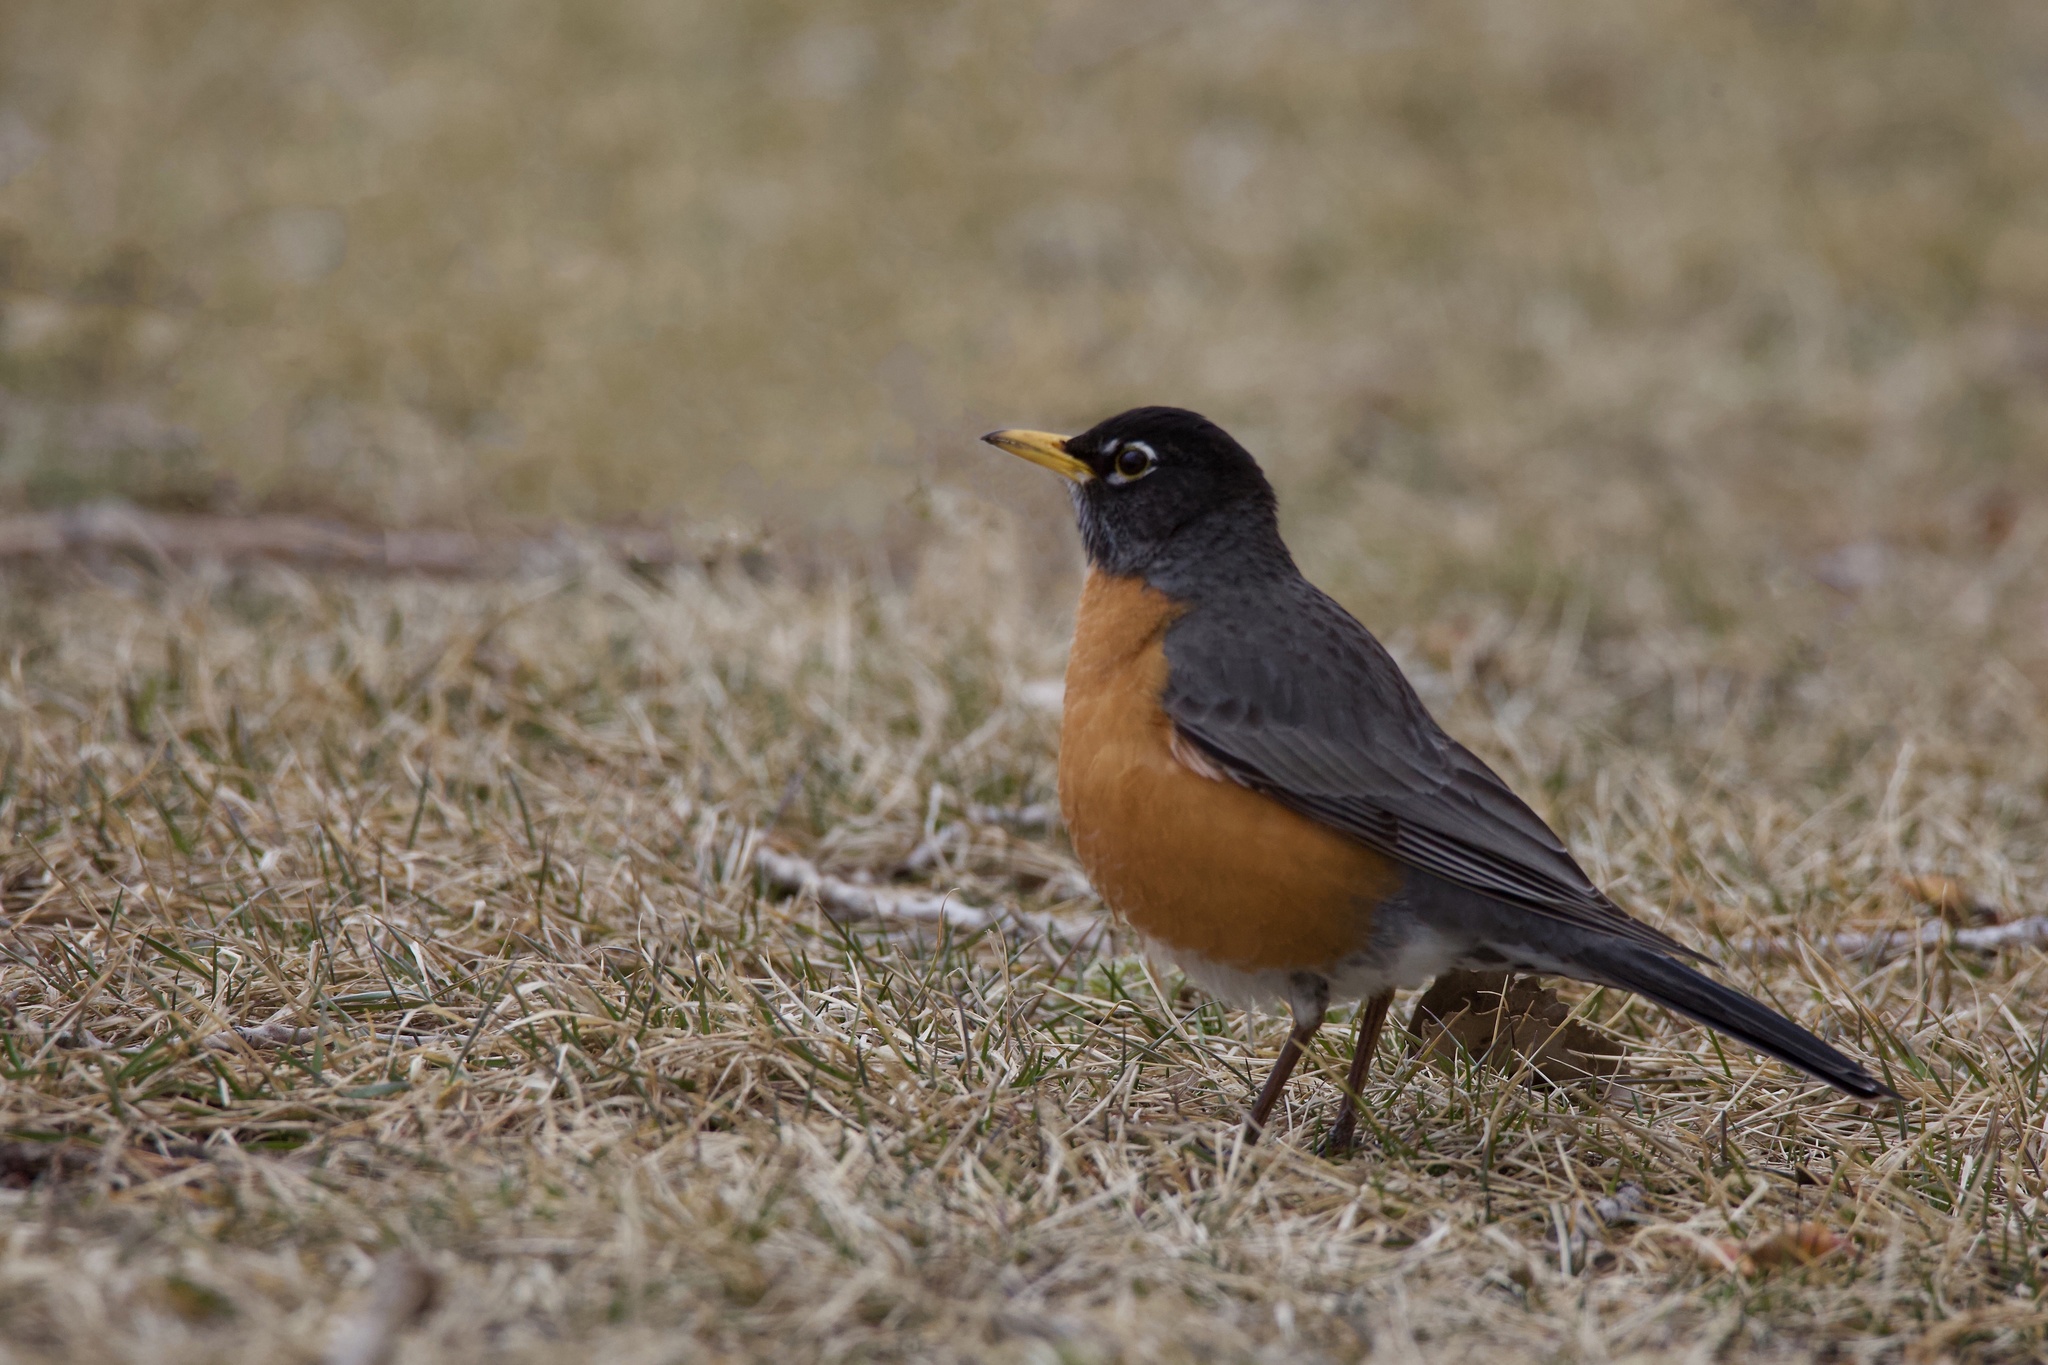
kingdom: Animalia
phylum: Chordata
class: Aves
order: Passeriformes
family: Turdidae
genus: Turdus
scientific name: Turdus migratorius
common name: American robin
